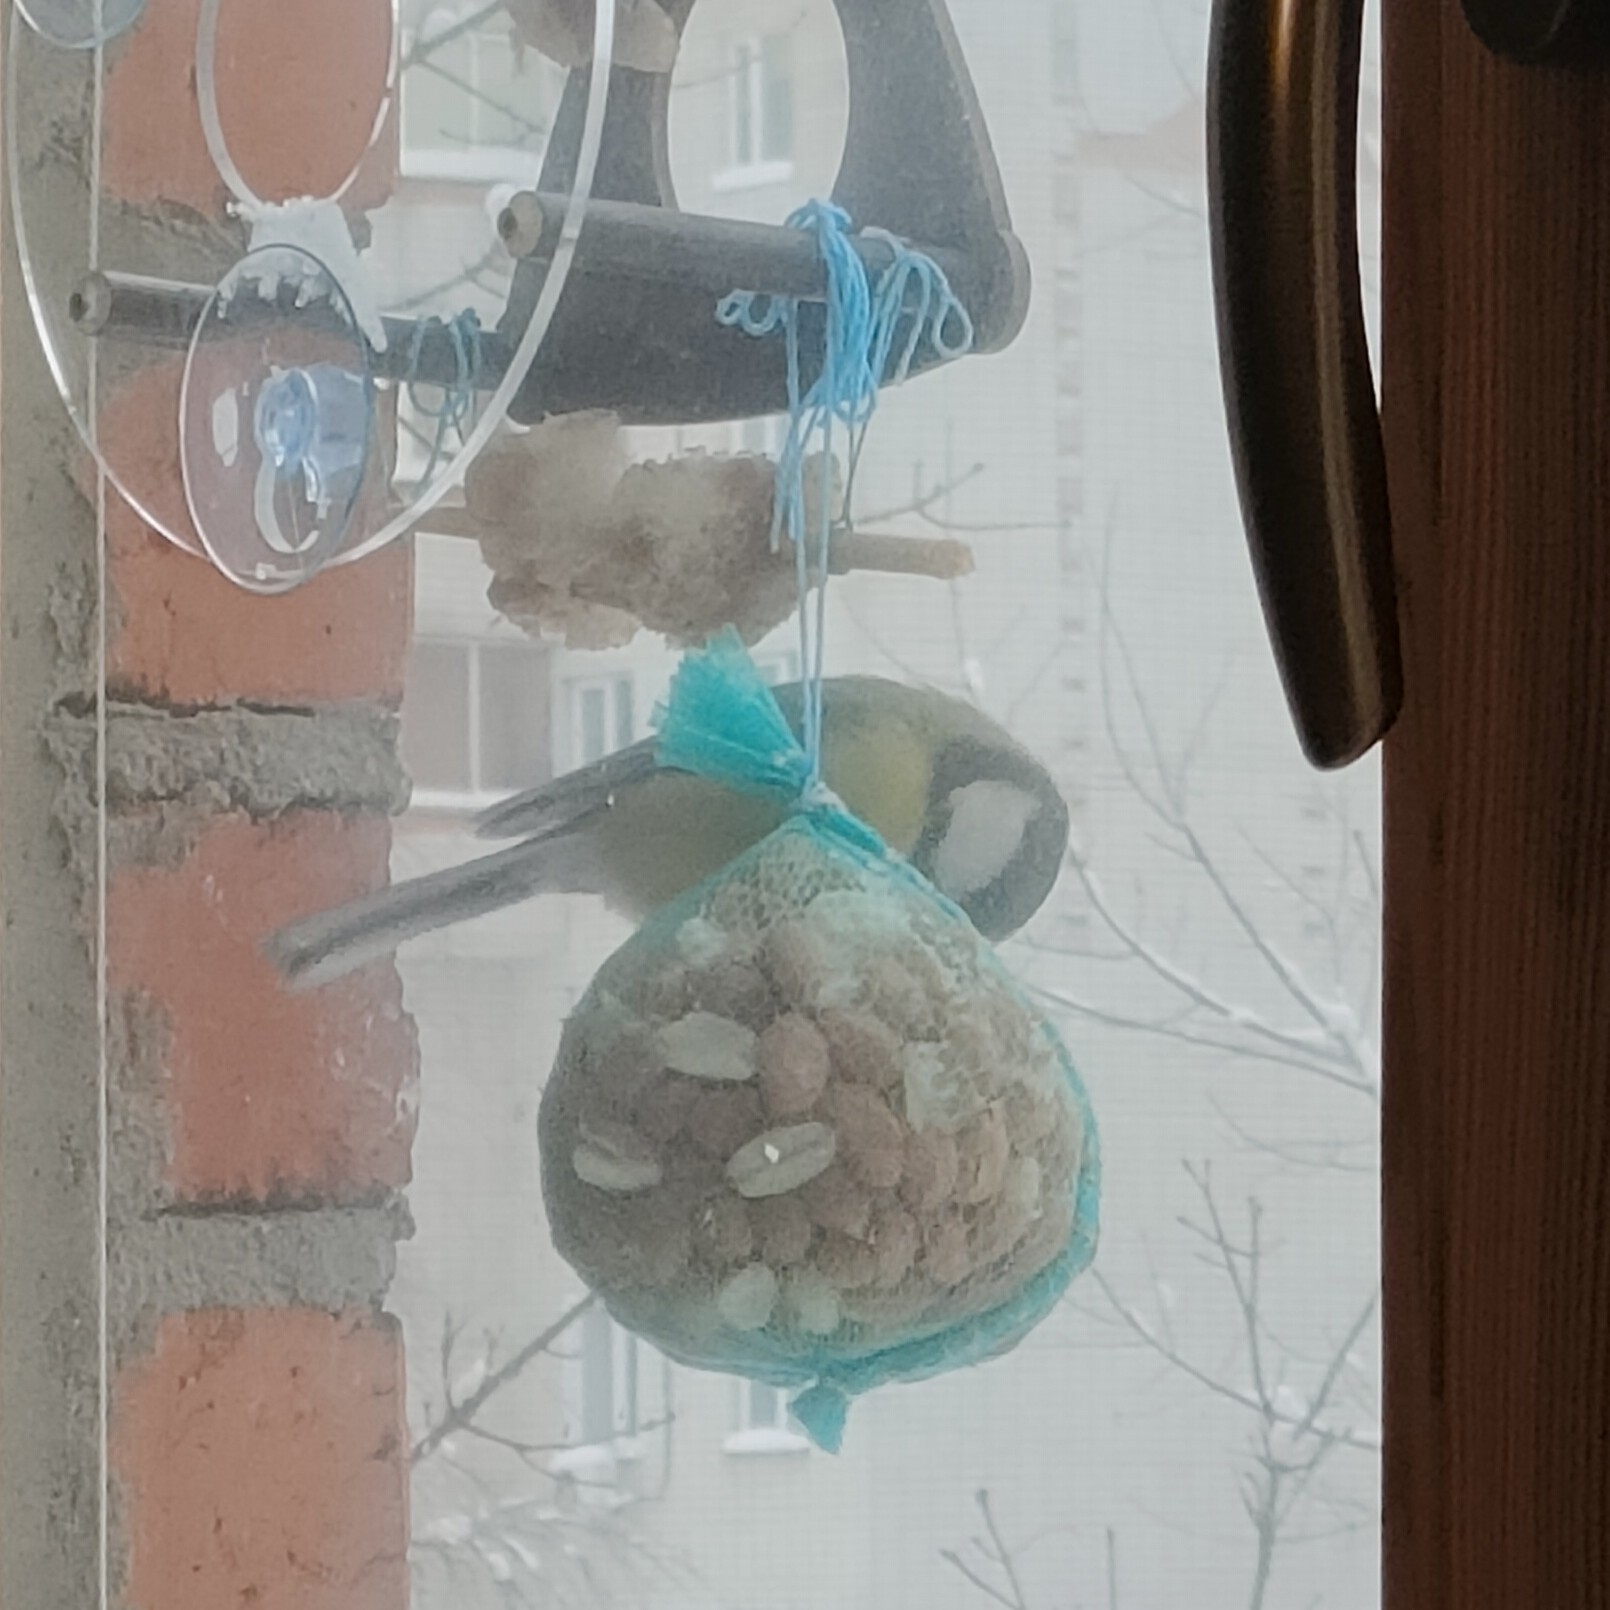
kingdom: Animalia
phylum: Chordata
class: Aves
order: Passeriformes
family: Paridae
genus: Parus
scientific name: Parus major
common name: Great tit
